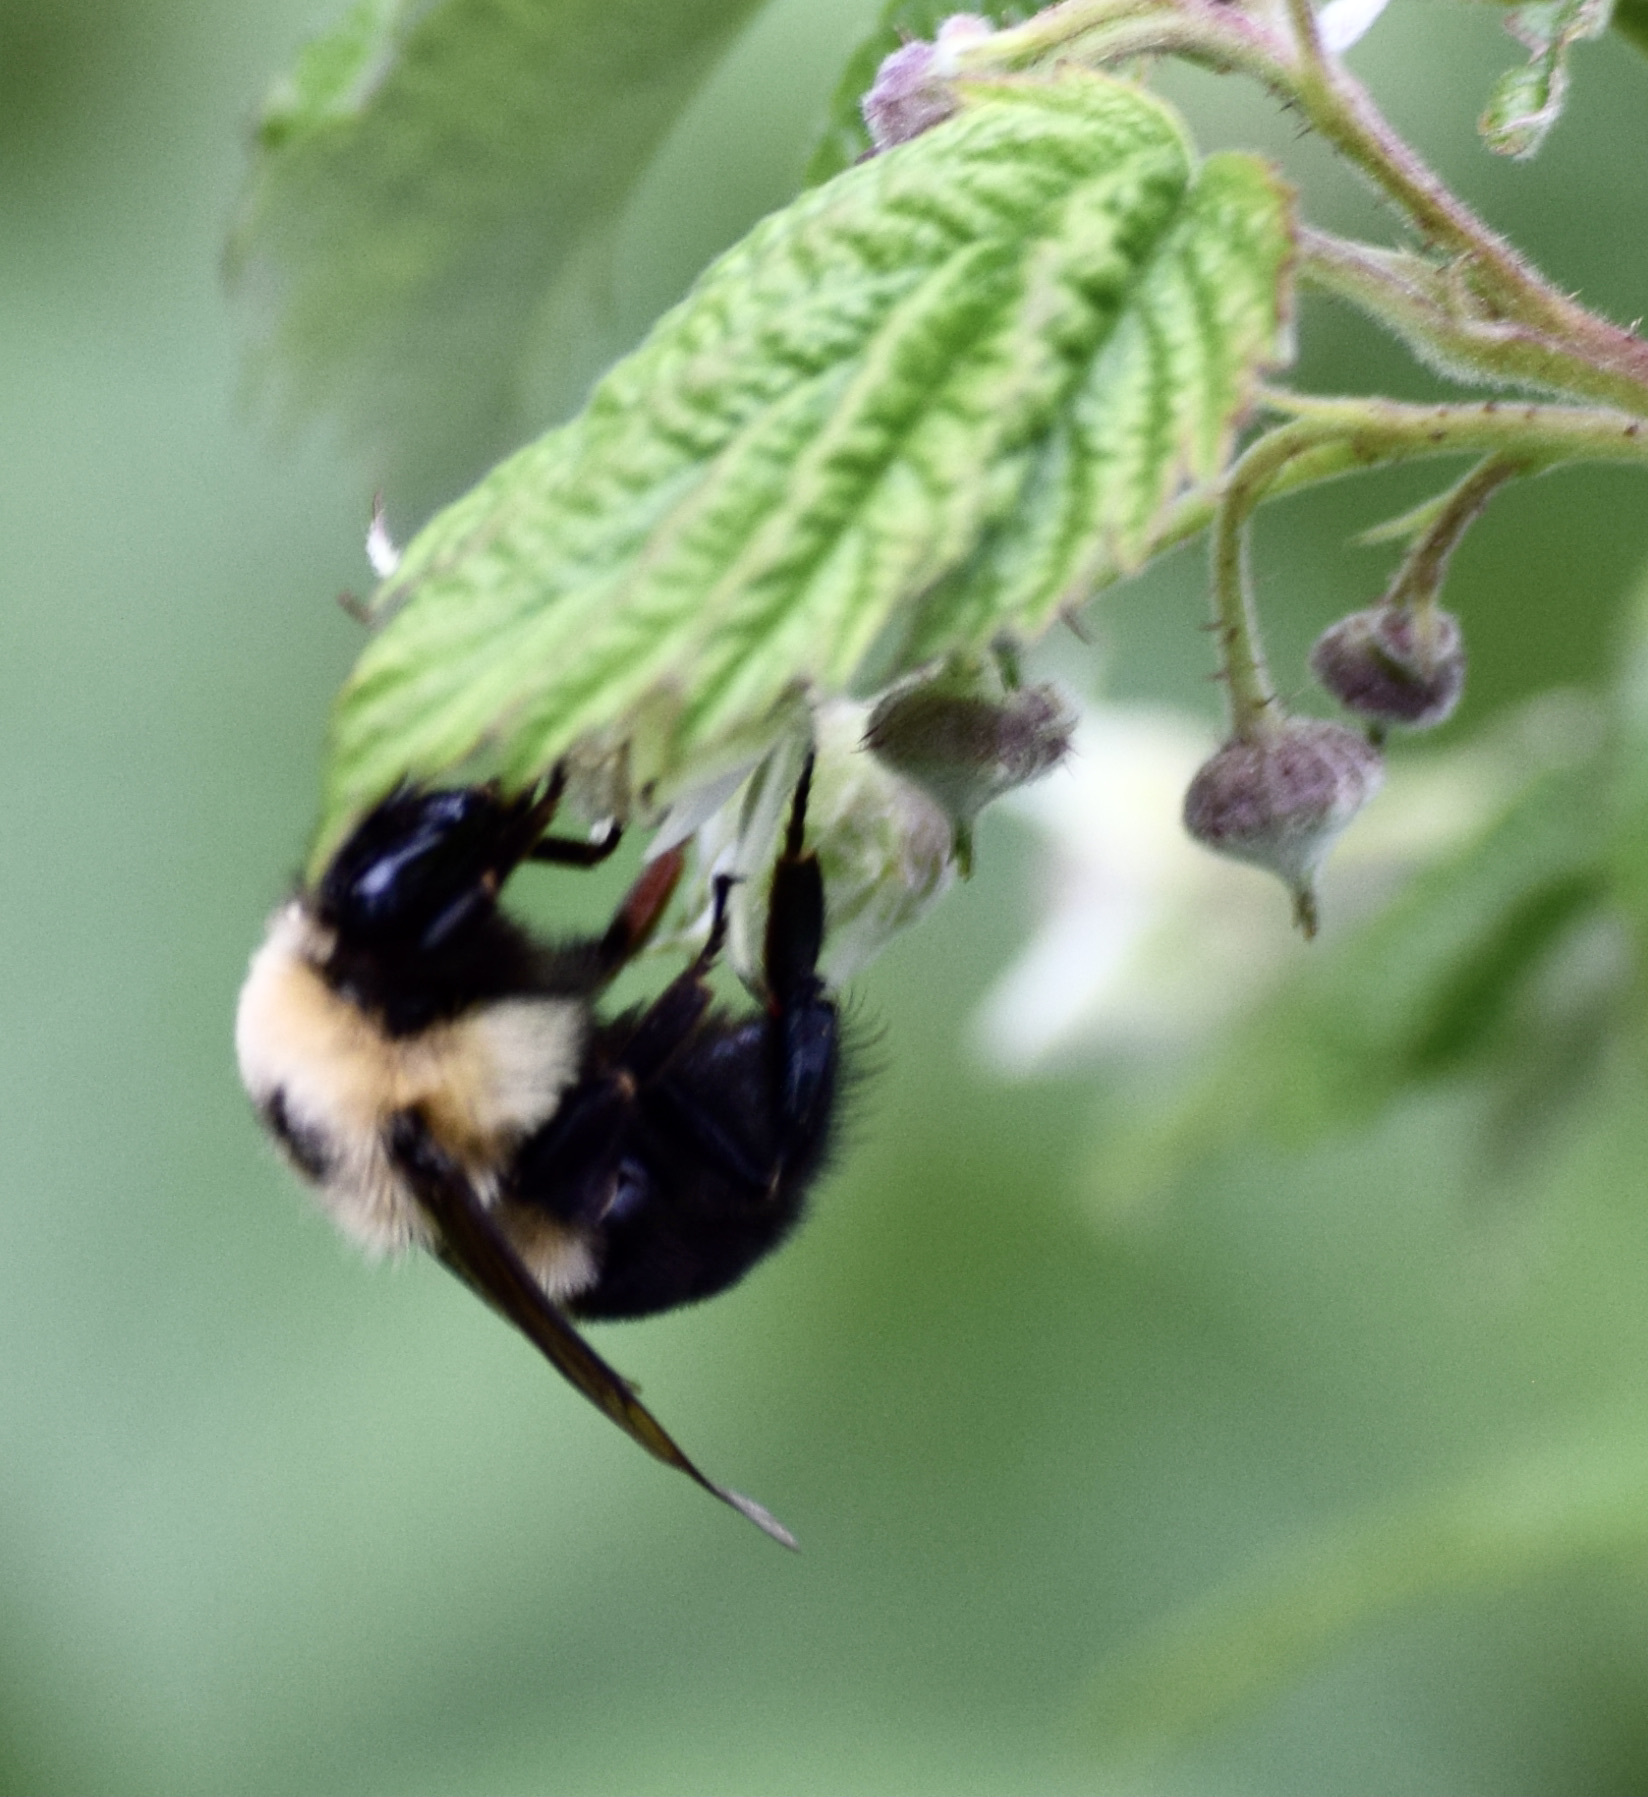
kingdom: Animalia
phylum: Arthropoda
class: Insecta
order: Hymenoptera
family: Apidae
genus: Bombus
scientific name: Bombus bimaculatus
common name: Two-spotted bumble bee
